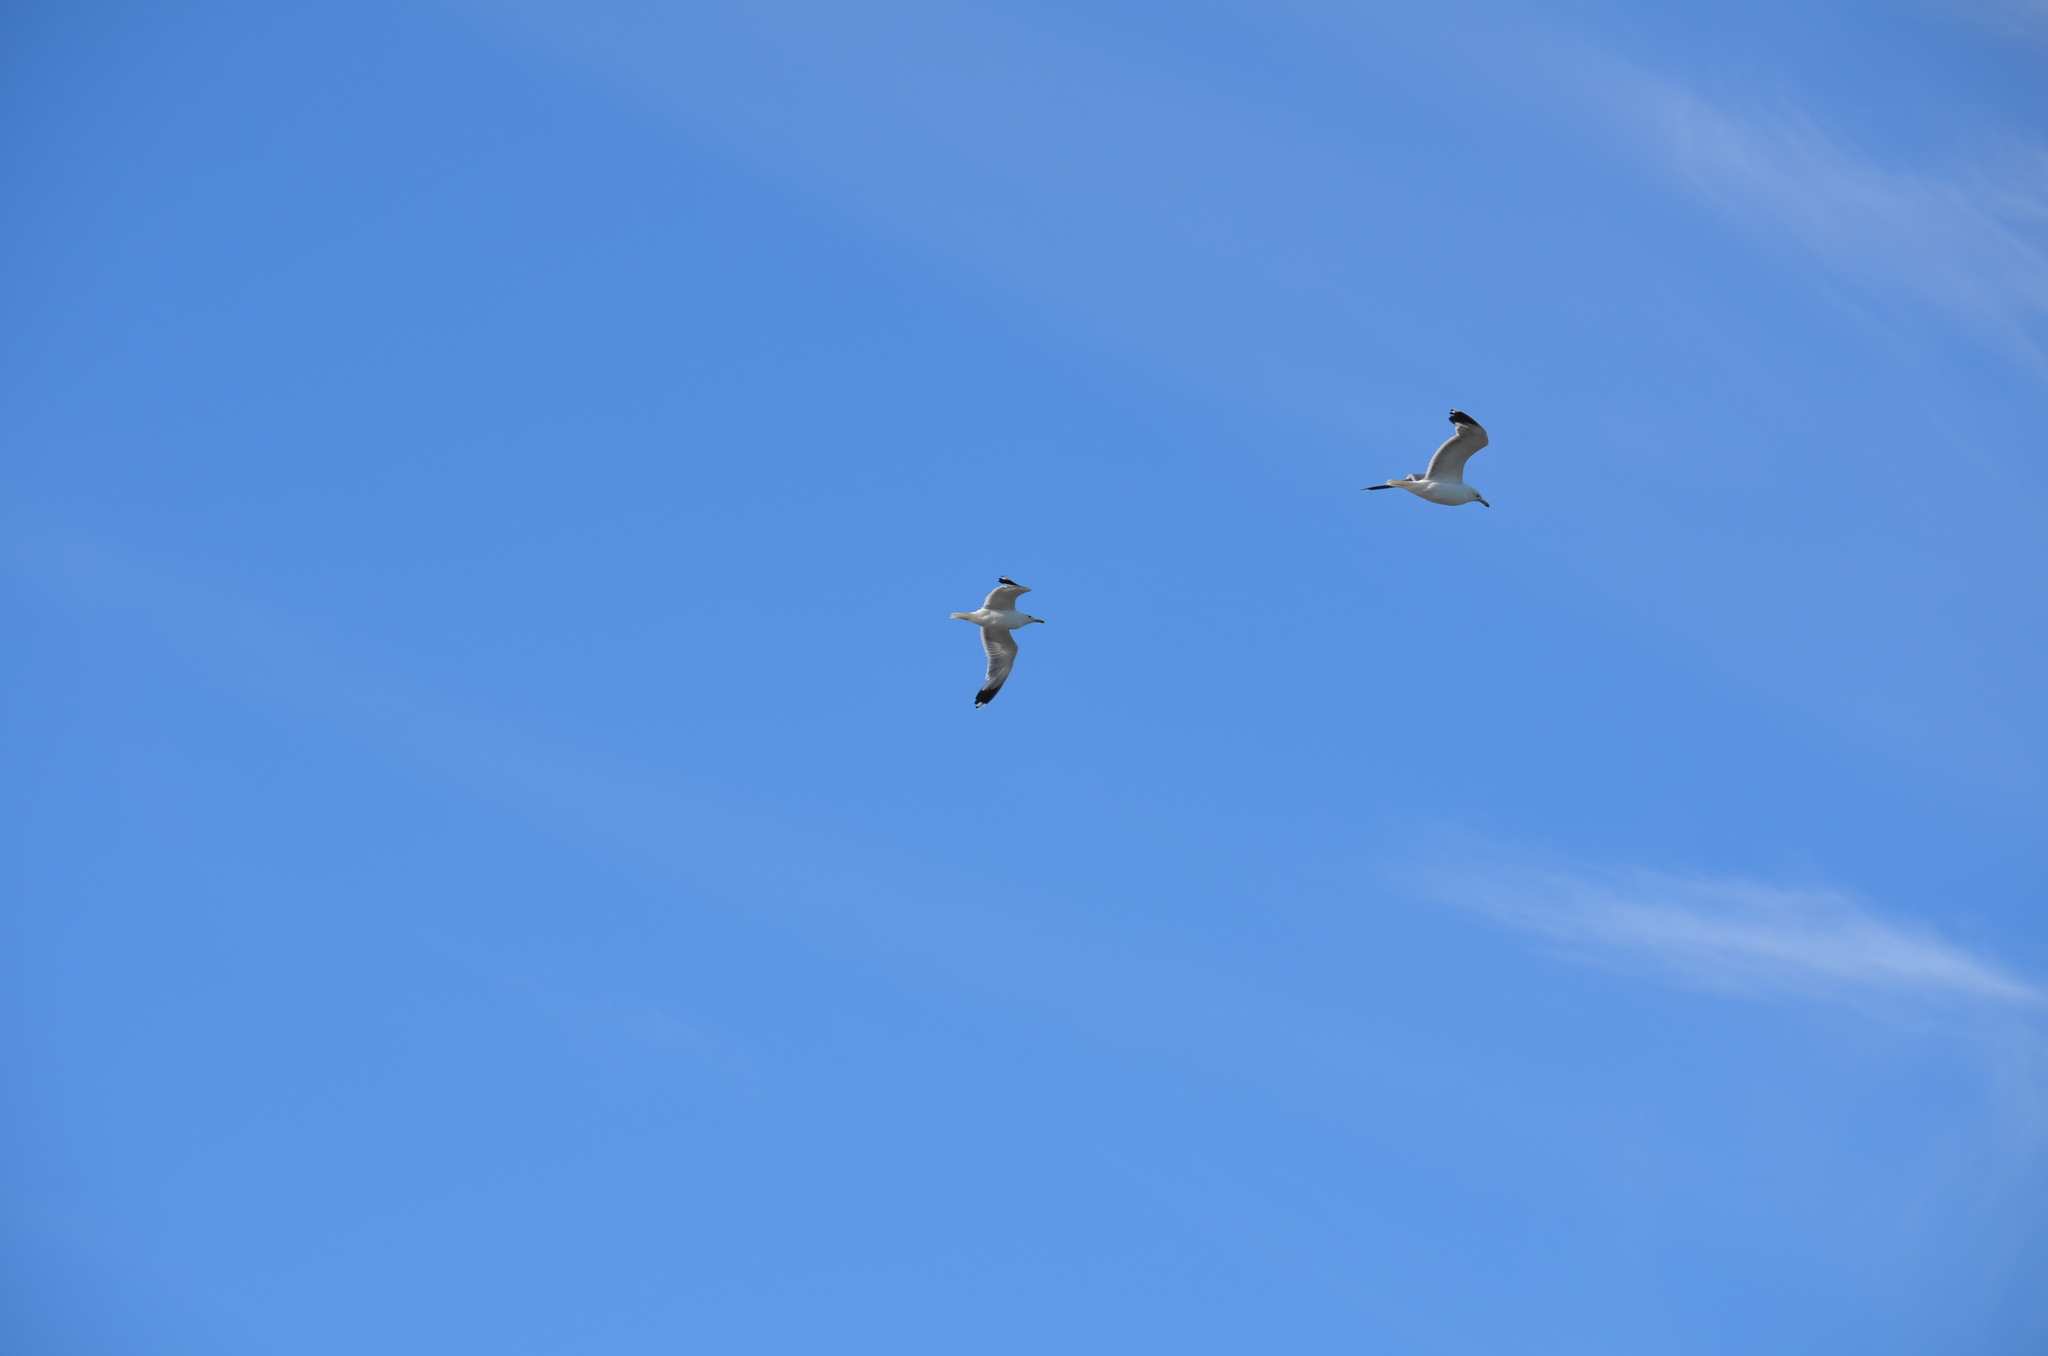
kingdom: Animalia
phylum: Chordata
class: Aves
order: Charadriiformes
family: Laridae
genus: Larus
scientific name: Larus californicus
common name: California gull
